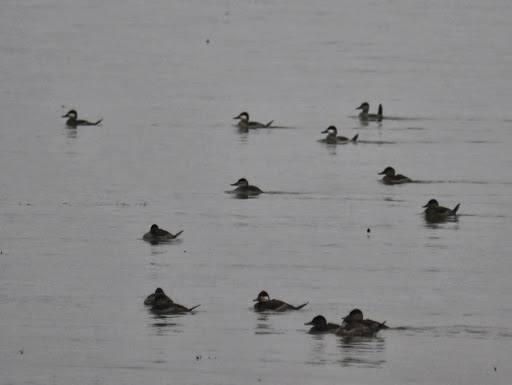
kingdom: Animalia
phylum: Chordata
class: Aves
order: Anseriformes
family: Anatidae
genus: Oxyura
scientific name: Oxyura jamaicensis
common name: Ruddy duck
